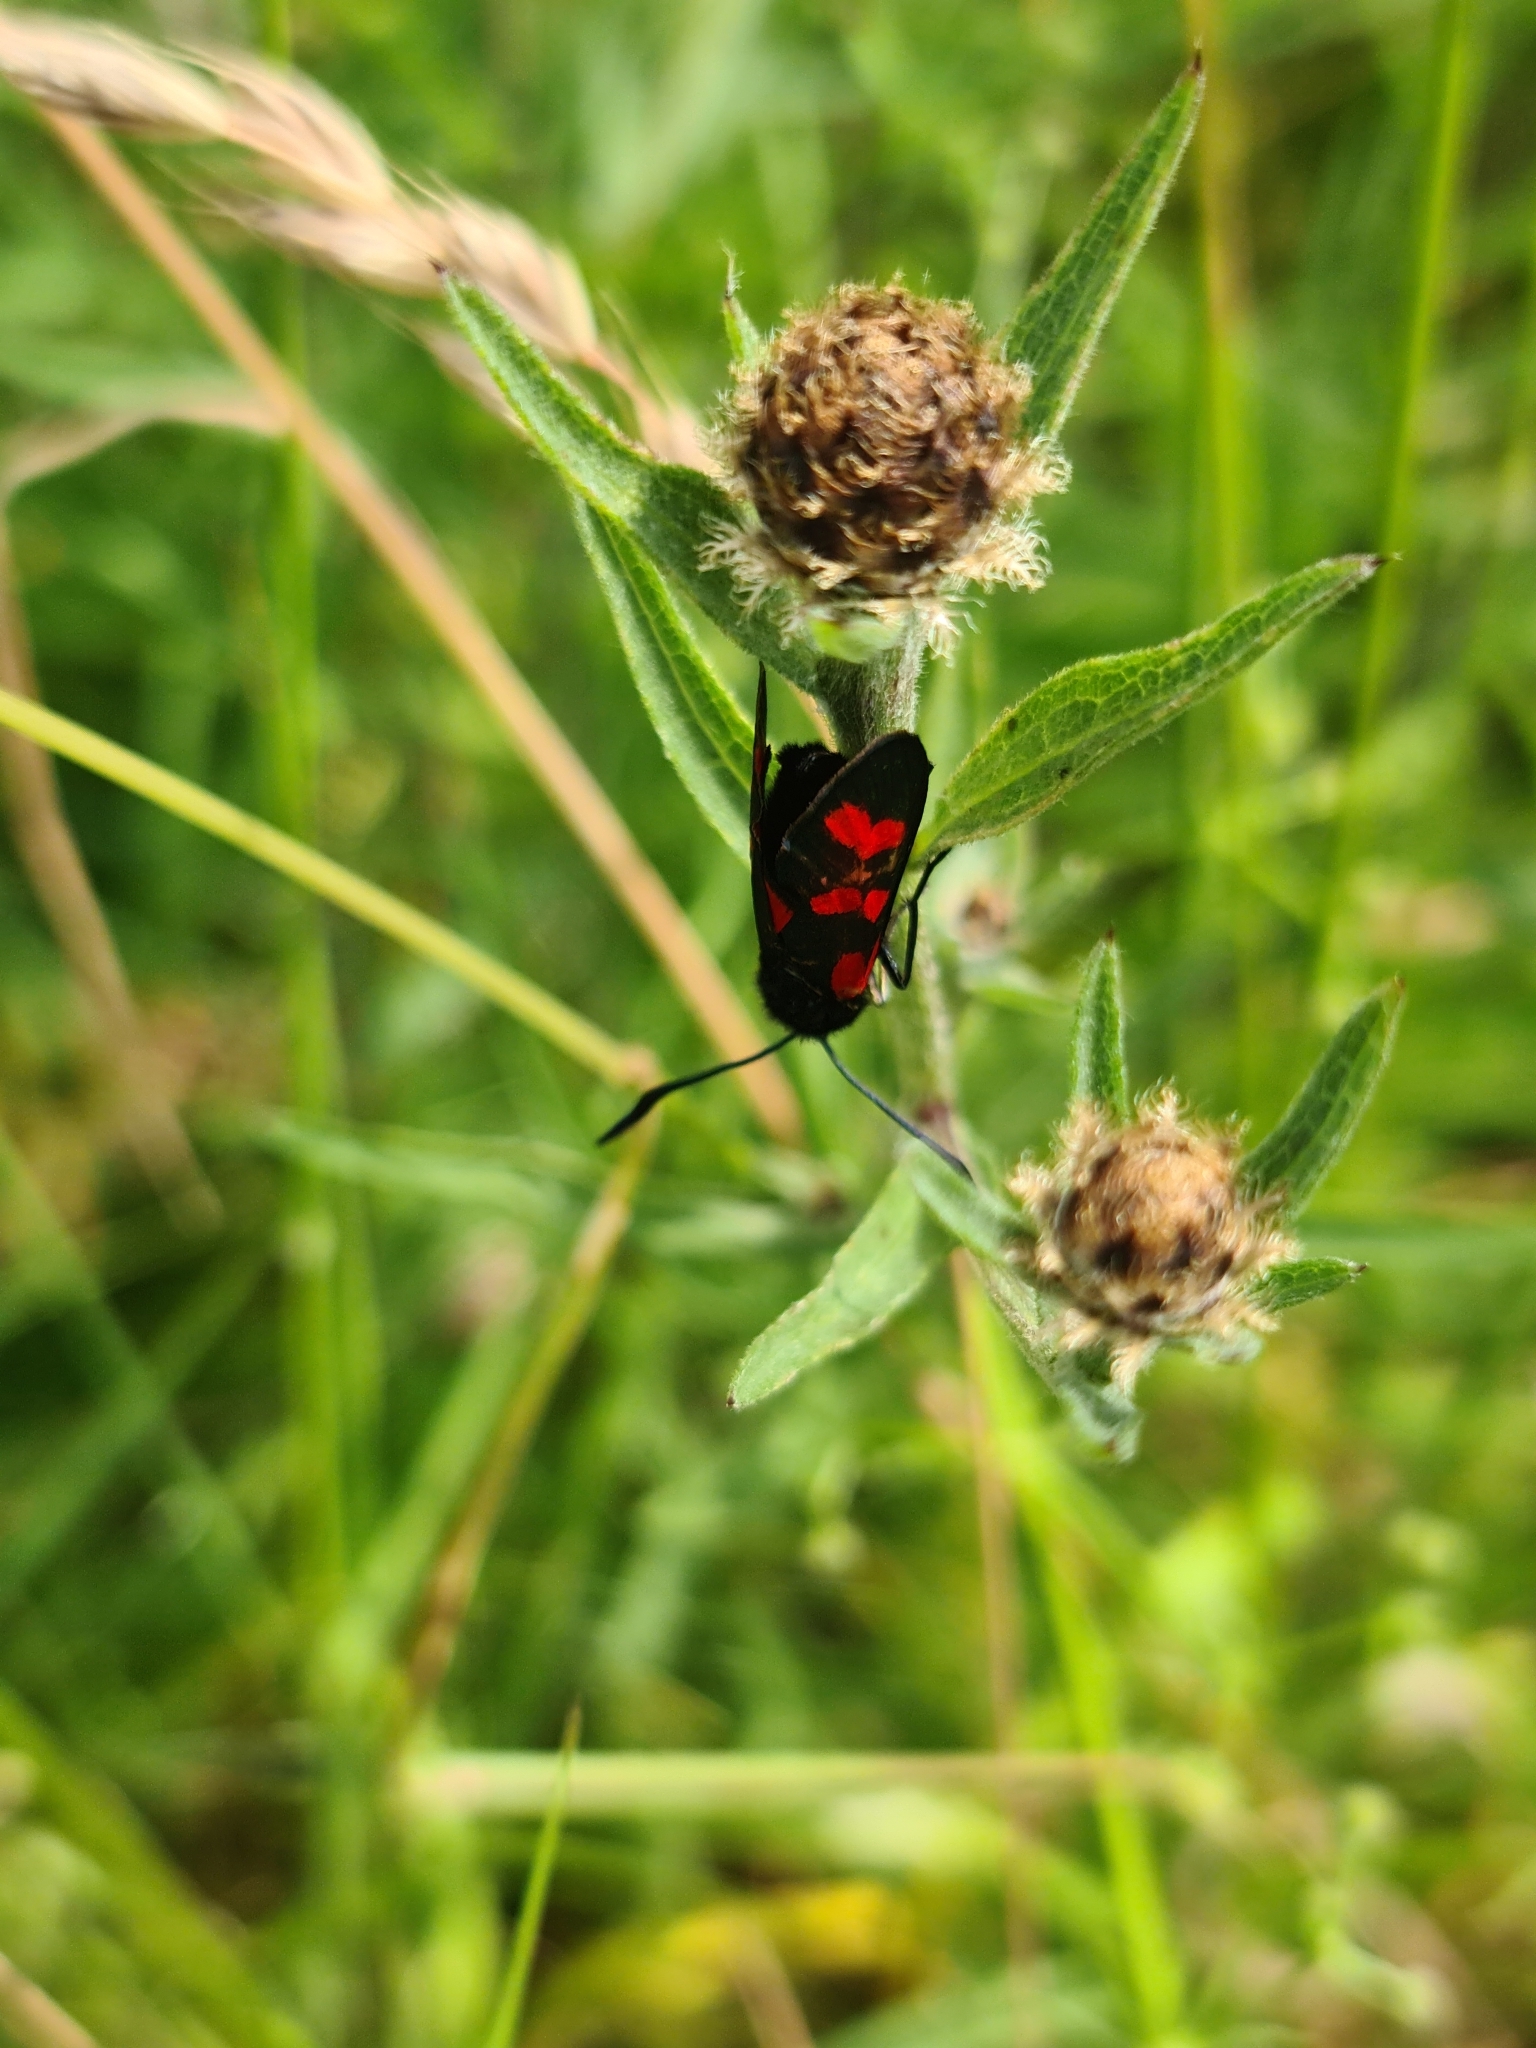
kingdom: Animalia
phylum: Arthropoda
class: Insecta
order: Lepidoptera
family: Zygaenidae
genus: Zygaena
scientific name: Zygaena filipendulae
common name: Six-spot burnet
